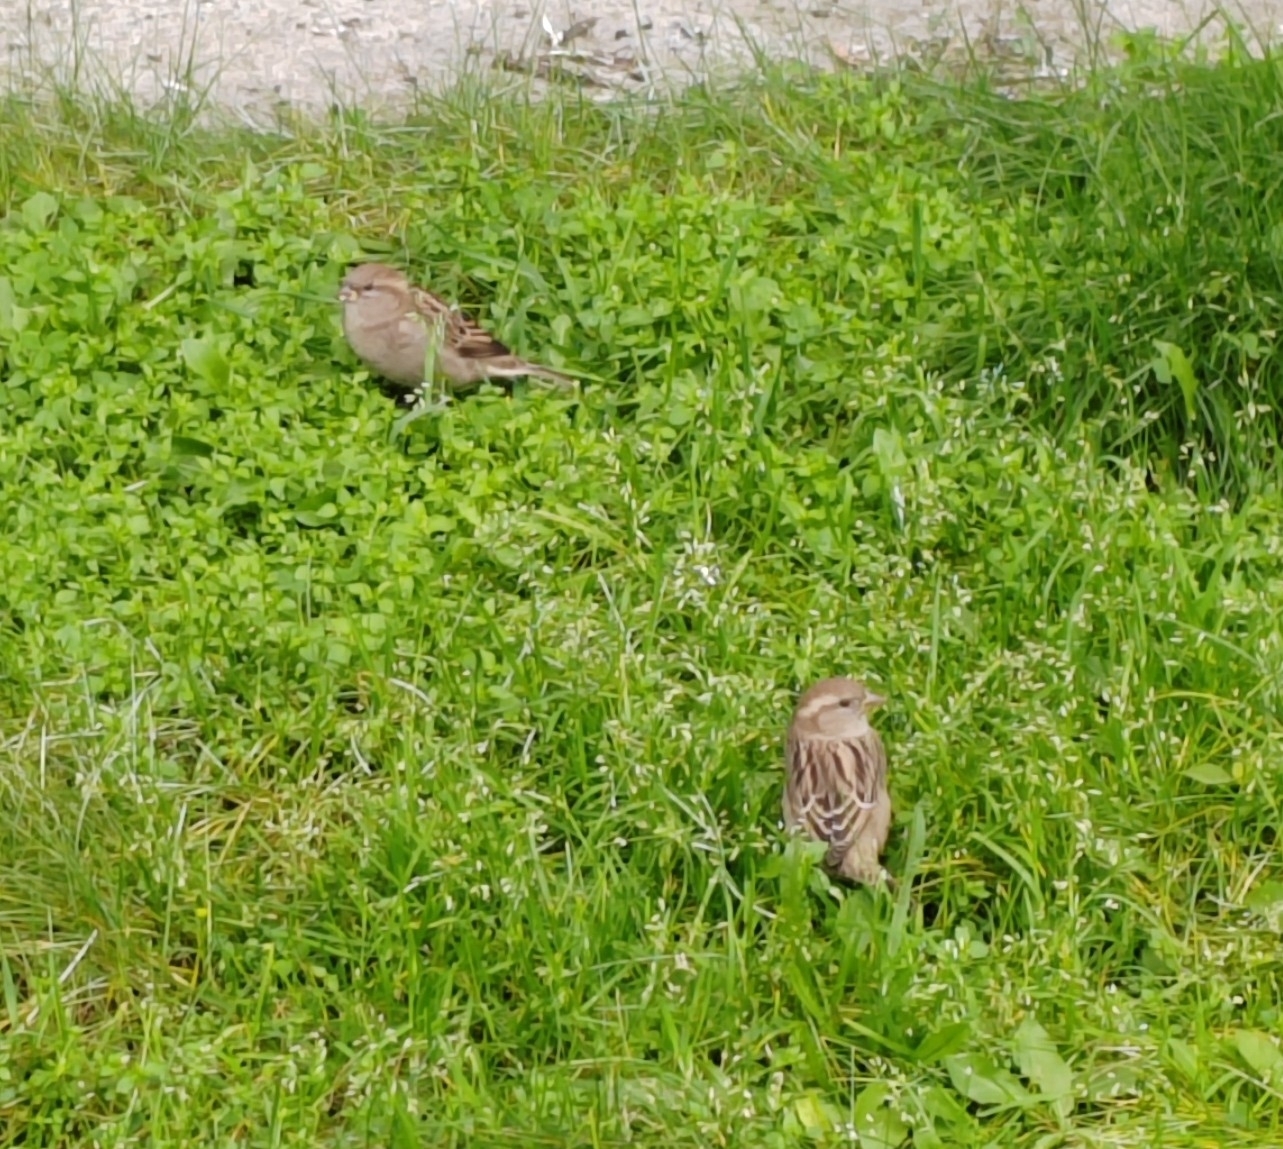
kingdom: Animalia
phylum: Chordata
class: Aves
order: Passeriformes
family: Passeridae
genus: Passer
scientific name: Passer domesticus
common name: House sparrow
